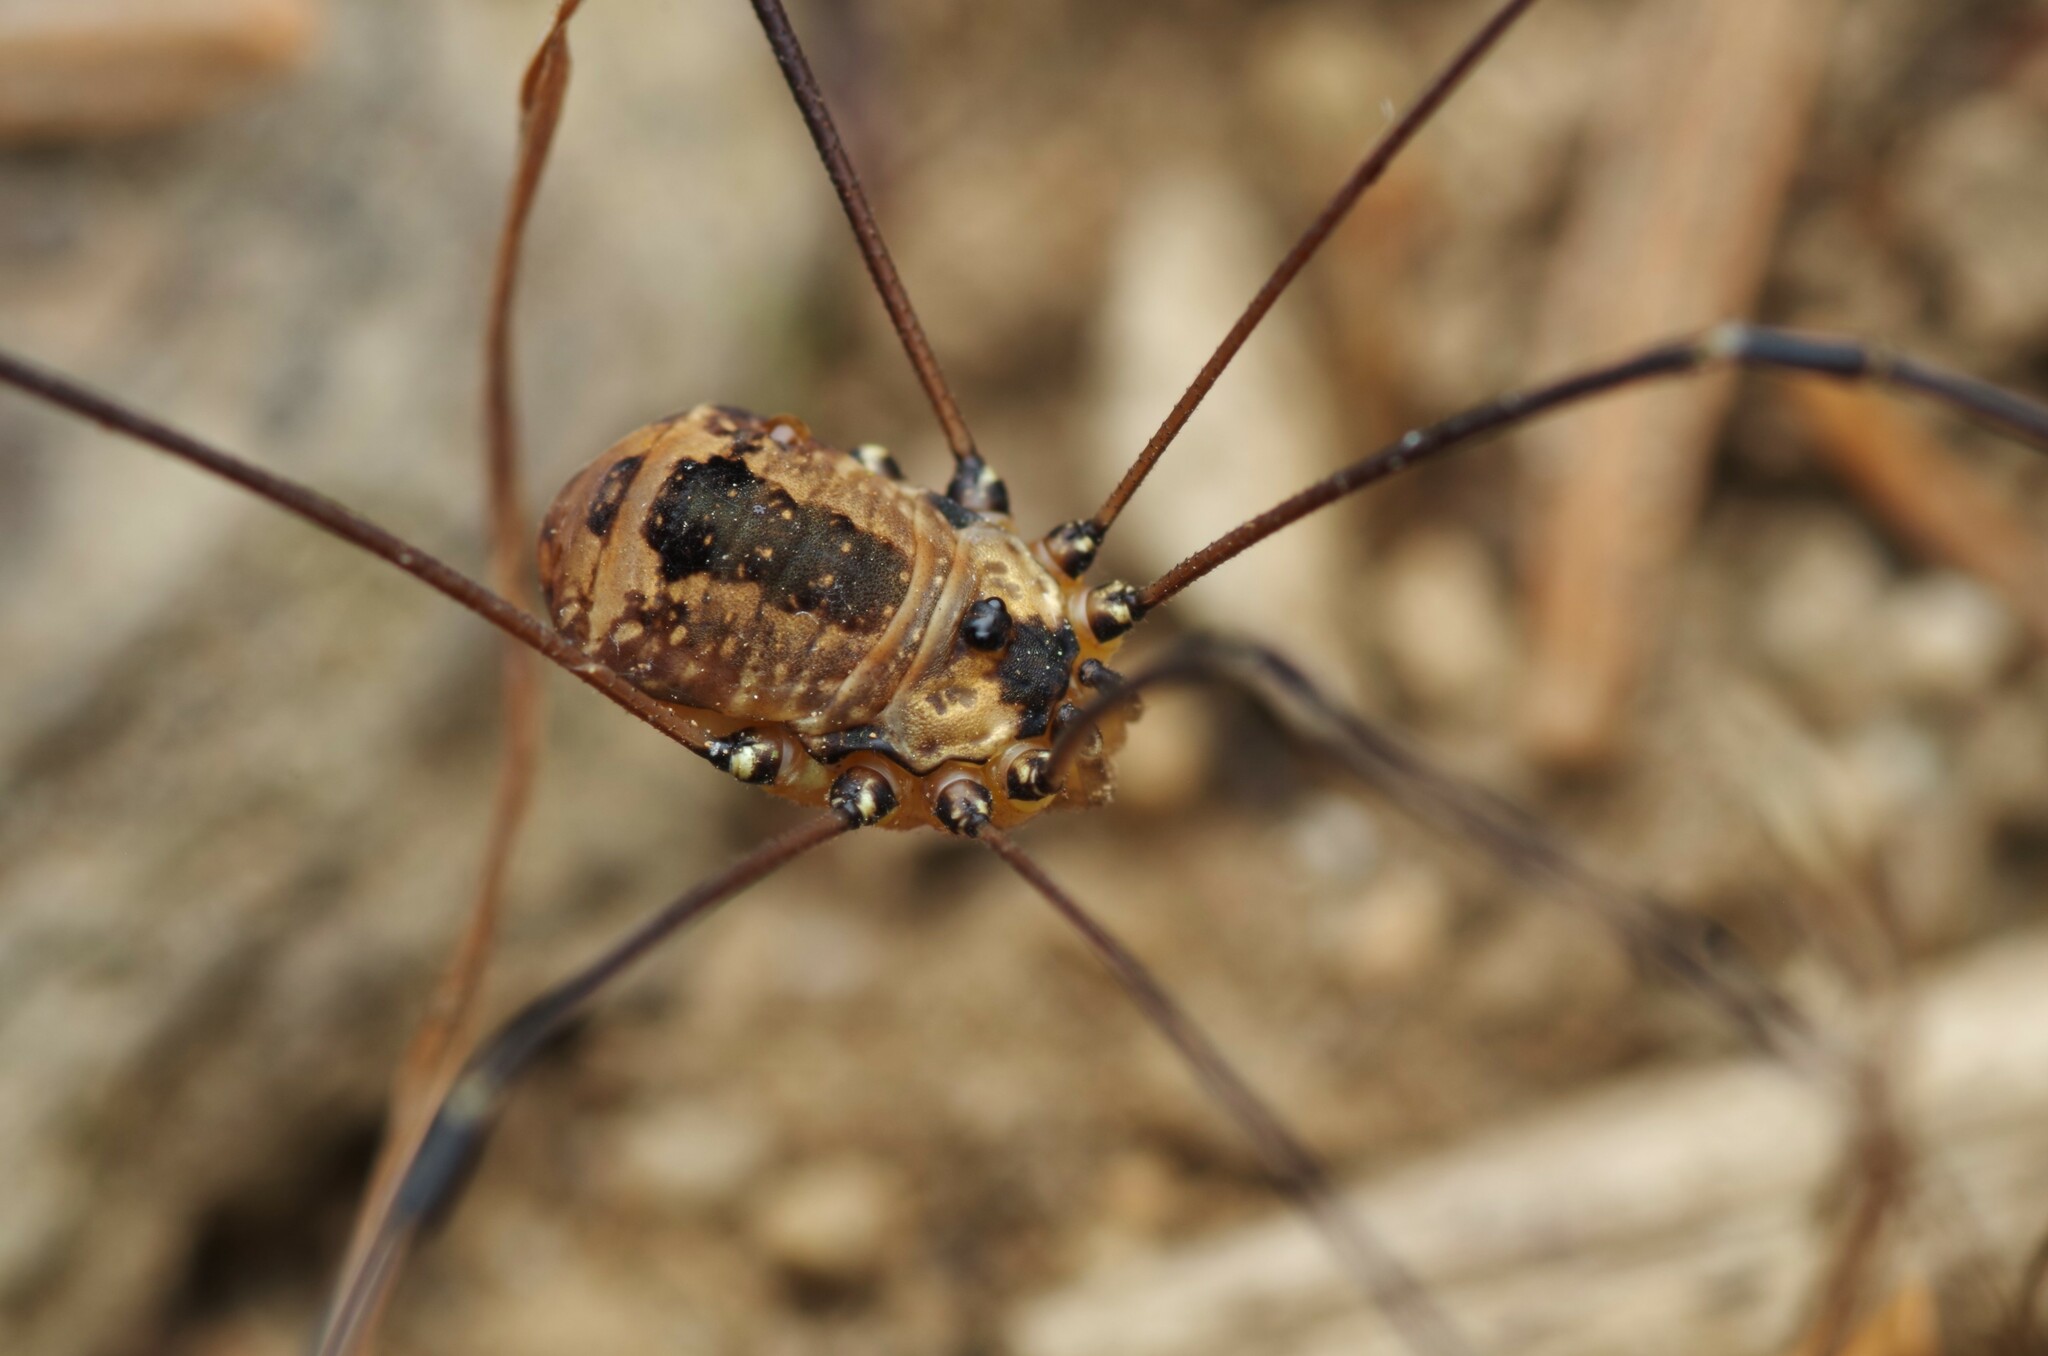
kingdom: Animalia
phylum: Arthropoda
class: Arachnida
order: Opiliones
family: Sclerosomatidae
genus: Leiobunum
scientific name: Leiobunum rotundum
